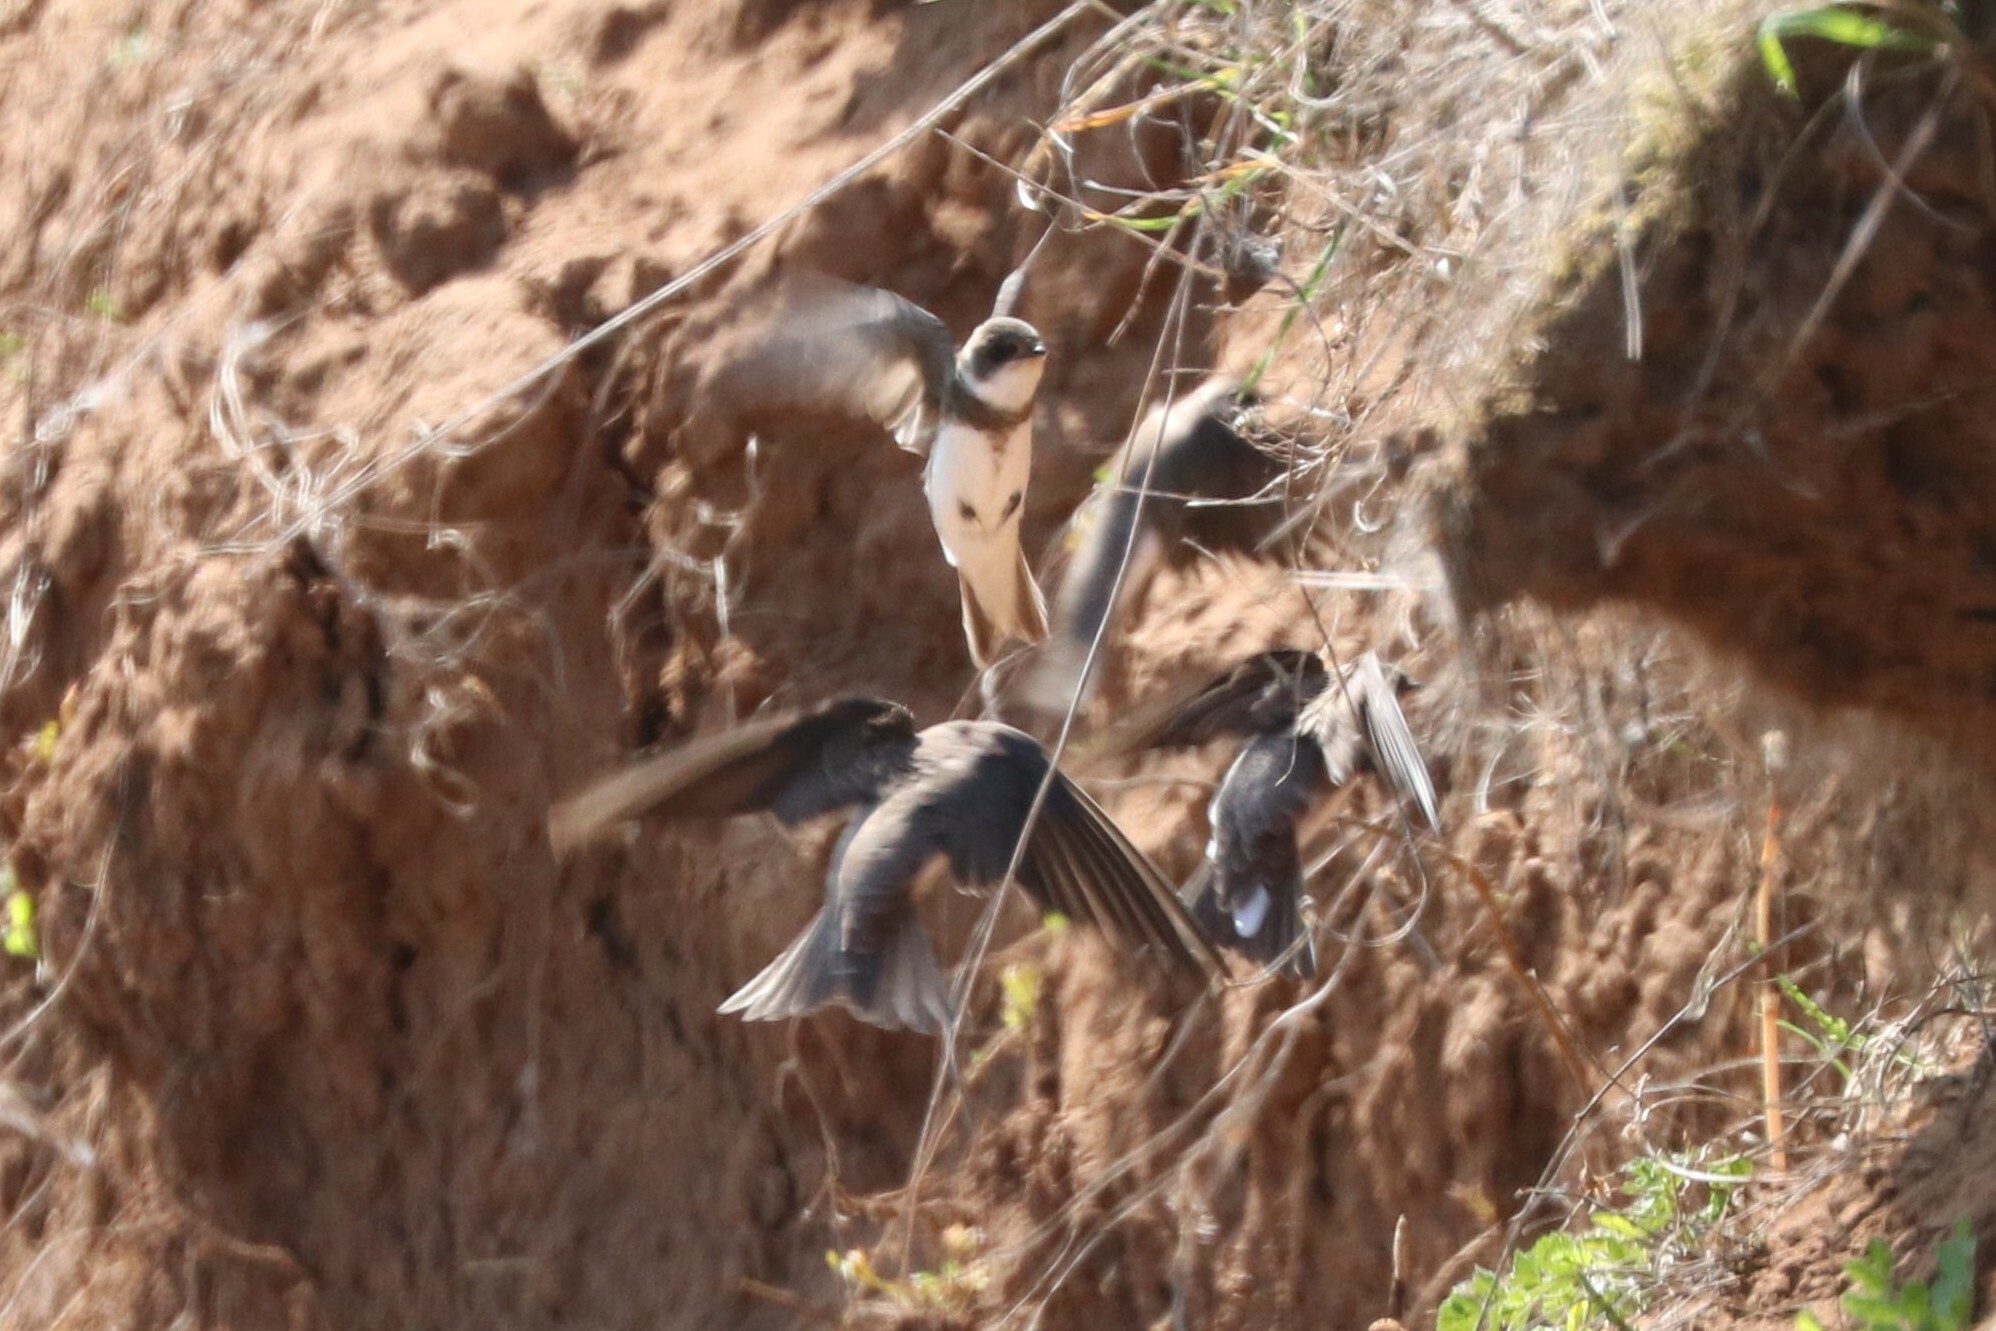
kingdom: Animalia
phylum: Chordata
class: Aves
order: Passeriformes
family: Hirundinidae
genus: Riparia
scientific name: Riparia riparia
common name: Sand martin
